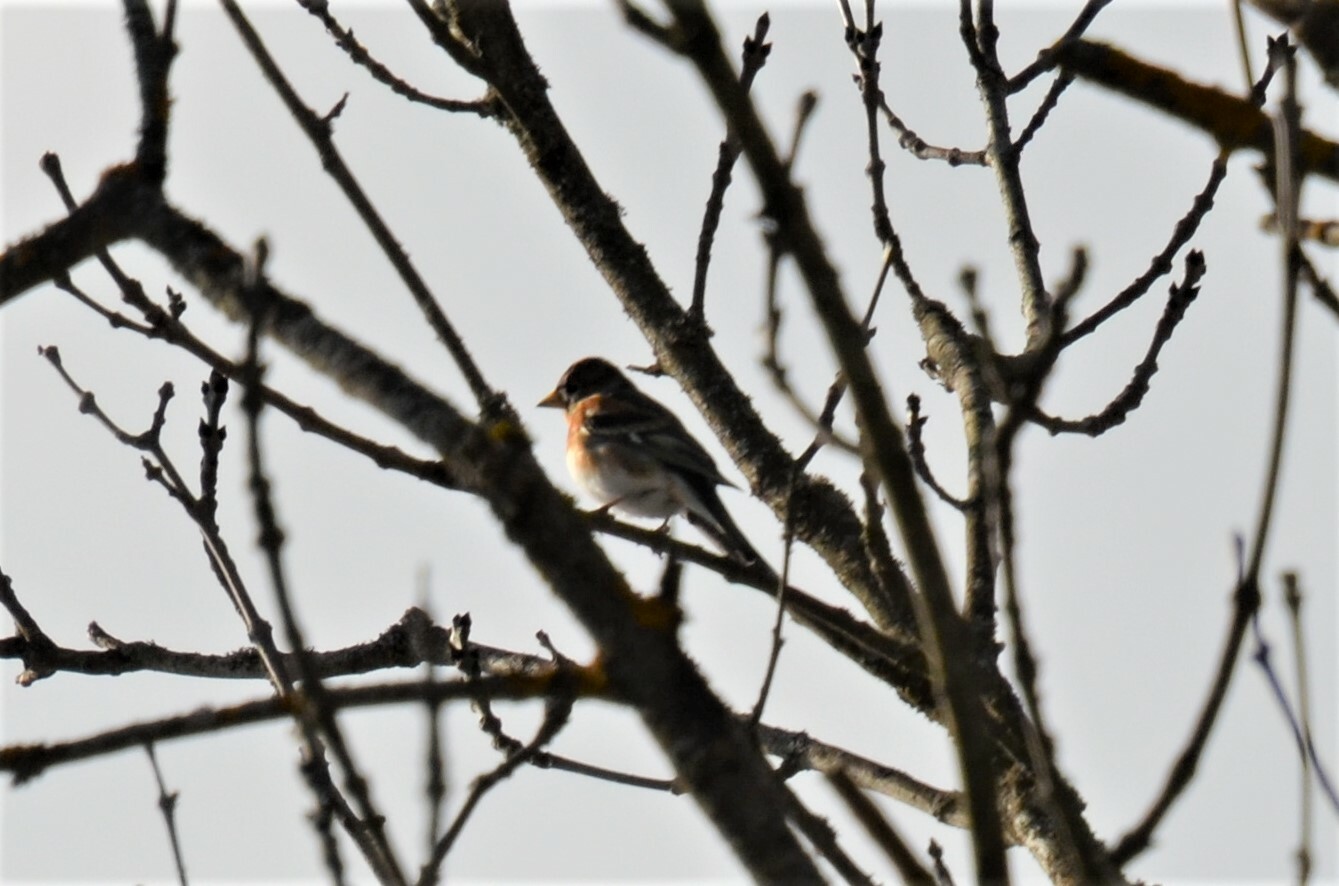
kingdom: Animalia
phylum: Chordata
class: Aves
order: Passeriformes
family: Fringillidae
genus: Fringilla
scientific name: Fringilla montifringilla
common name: Brambling
